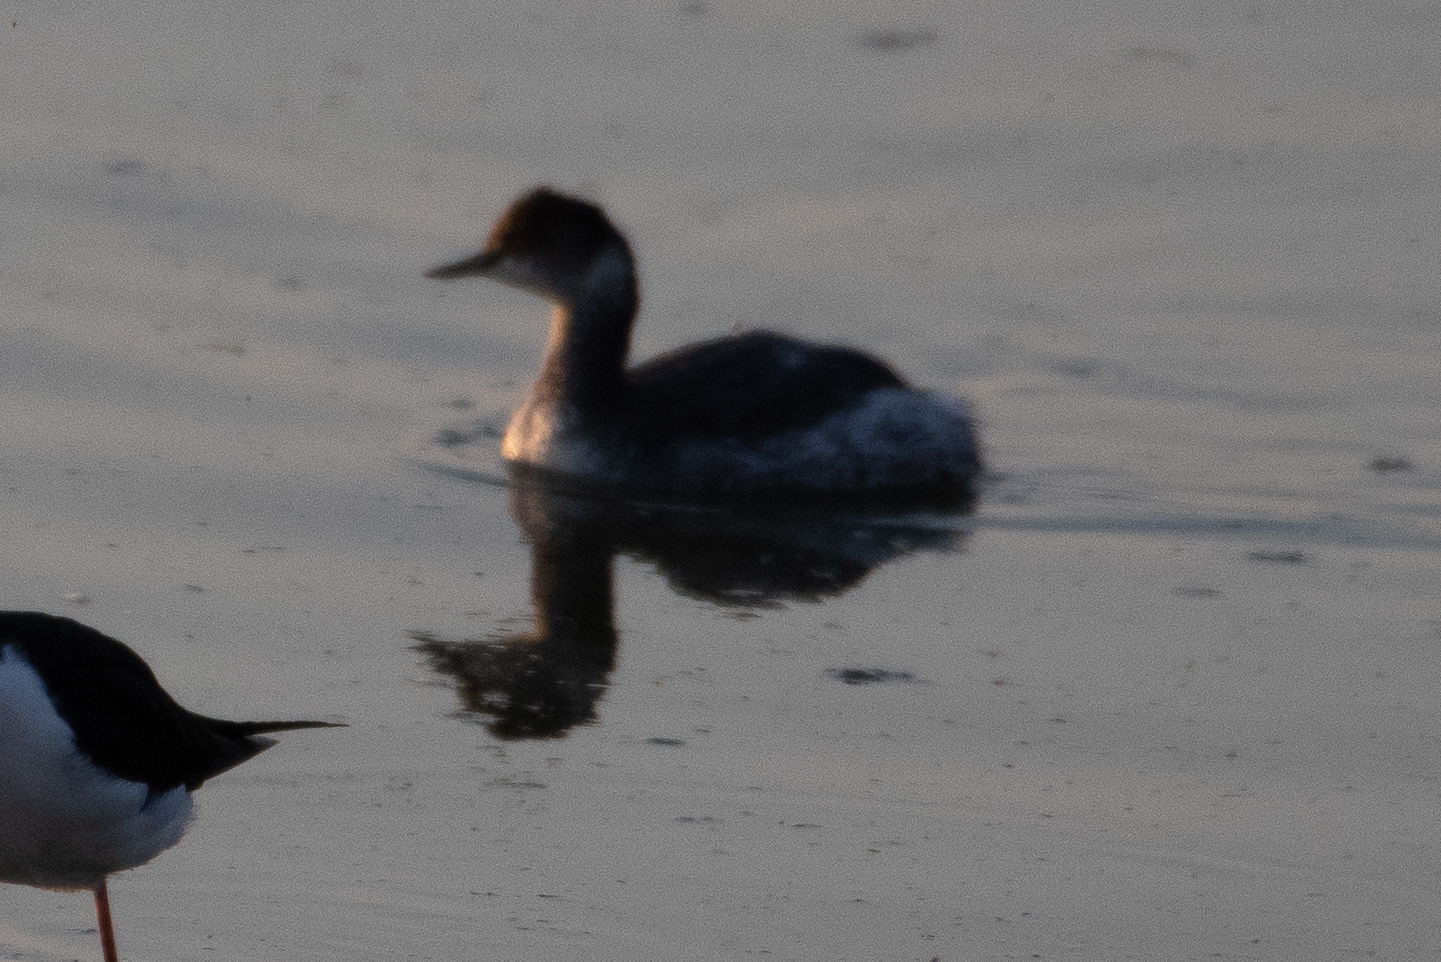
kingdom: Animalia
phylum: Chordata
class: Aves
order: Podicipediformes
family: Podicipedidae
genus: Podiceps
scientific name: Podiceps nigricollis
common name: Black-necked grebe
